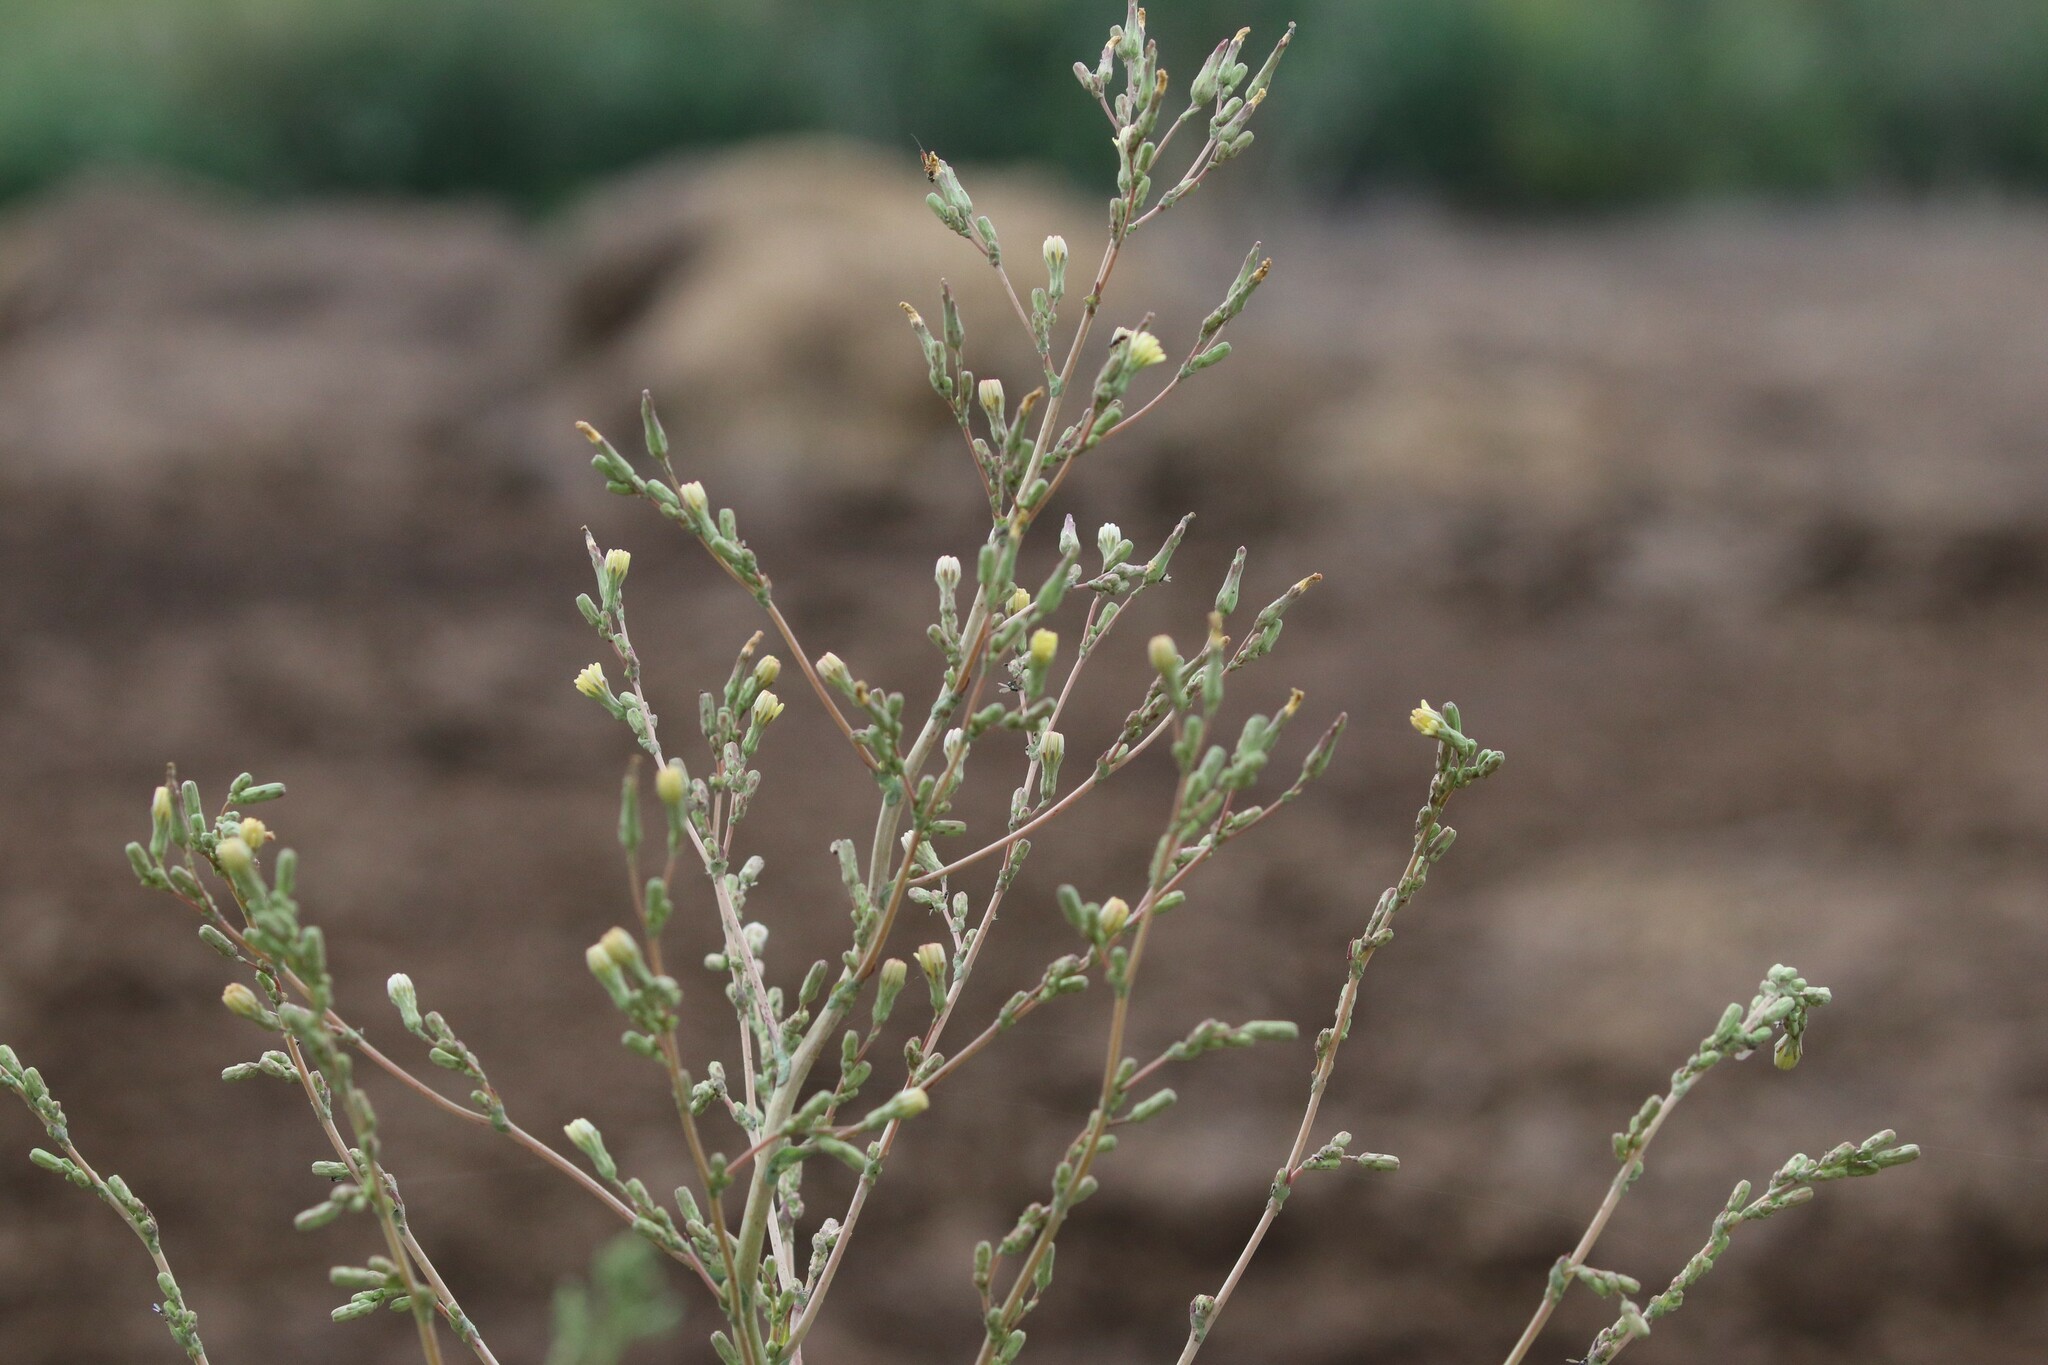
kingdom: Plantae
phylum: Tracheophyta
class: Magnoliopsida
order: Asterales
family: Asteraceae
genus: Lactuca
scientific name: Lactuca serriola
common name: Prickly lettuce
